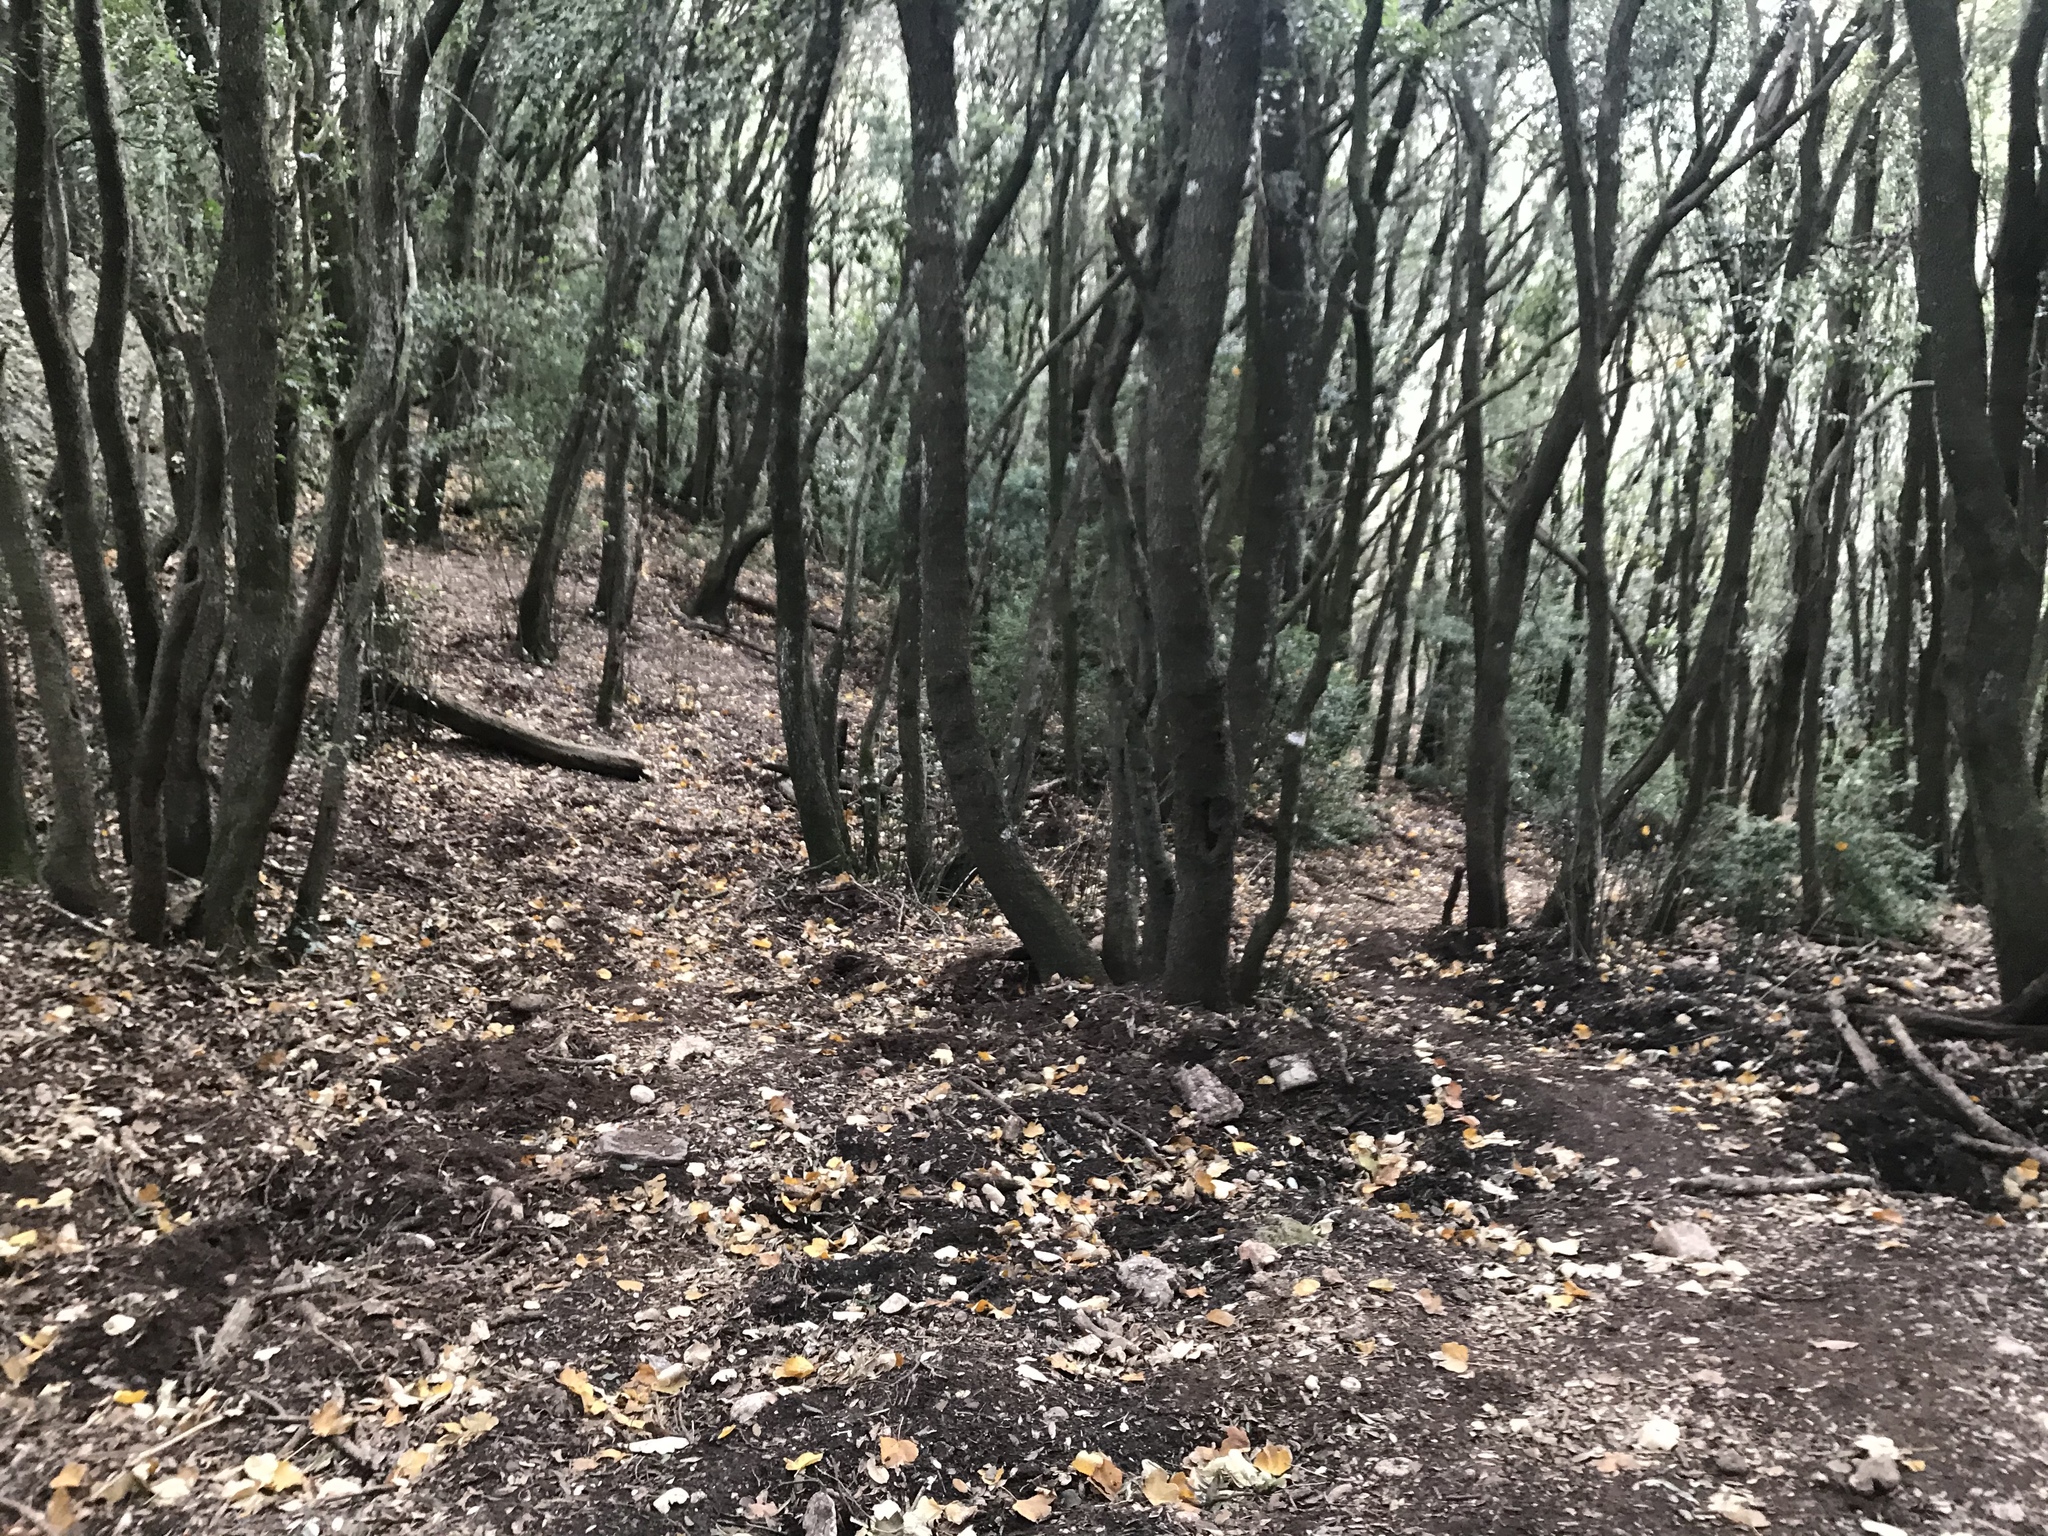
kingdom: Plantae
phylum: Tracheophyta
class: Magnoliopsida
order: Fagales
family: Fagaceae
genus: Quercus
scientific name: Quercus ilex
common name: Evergreen oak
